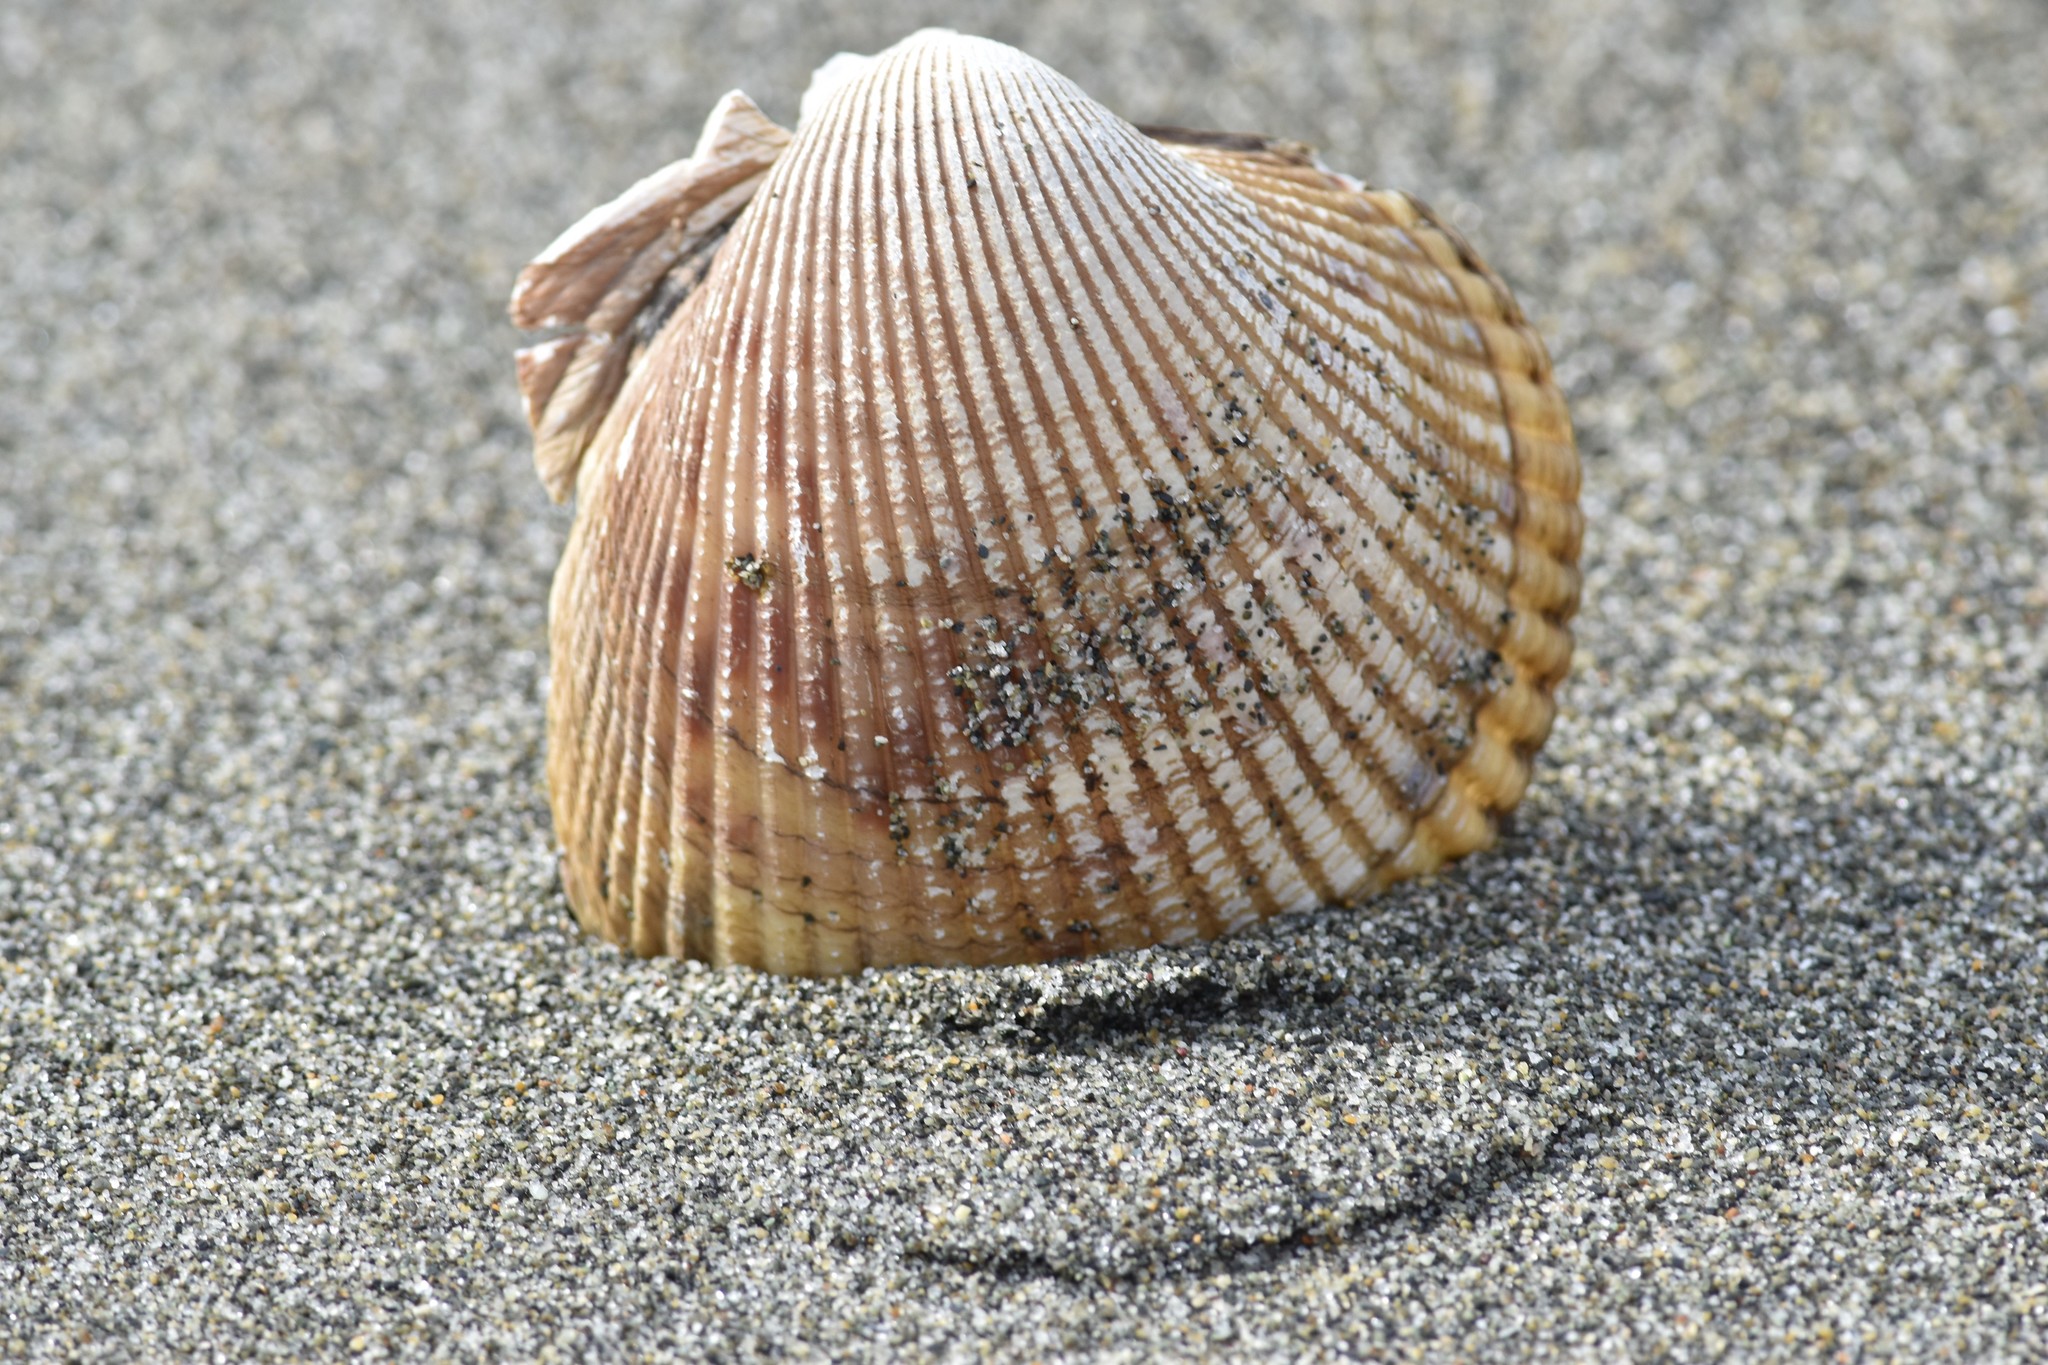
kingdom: Animalia
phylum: Mollusca
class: Bivalvia
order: Cardiida
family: Cardiidae
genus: Clinocardium
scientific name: Clinocardium nuttallii
